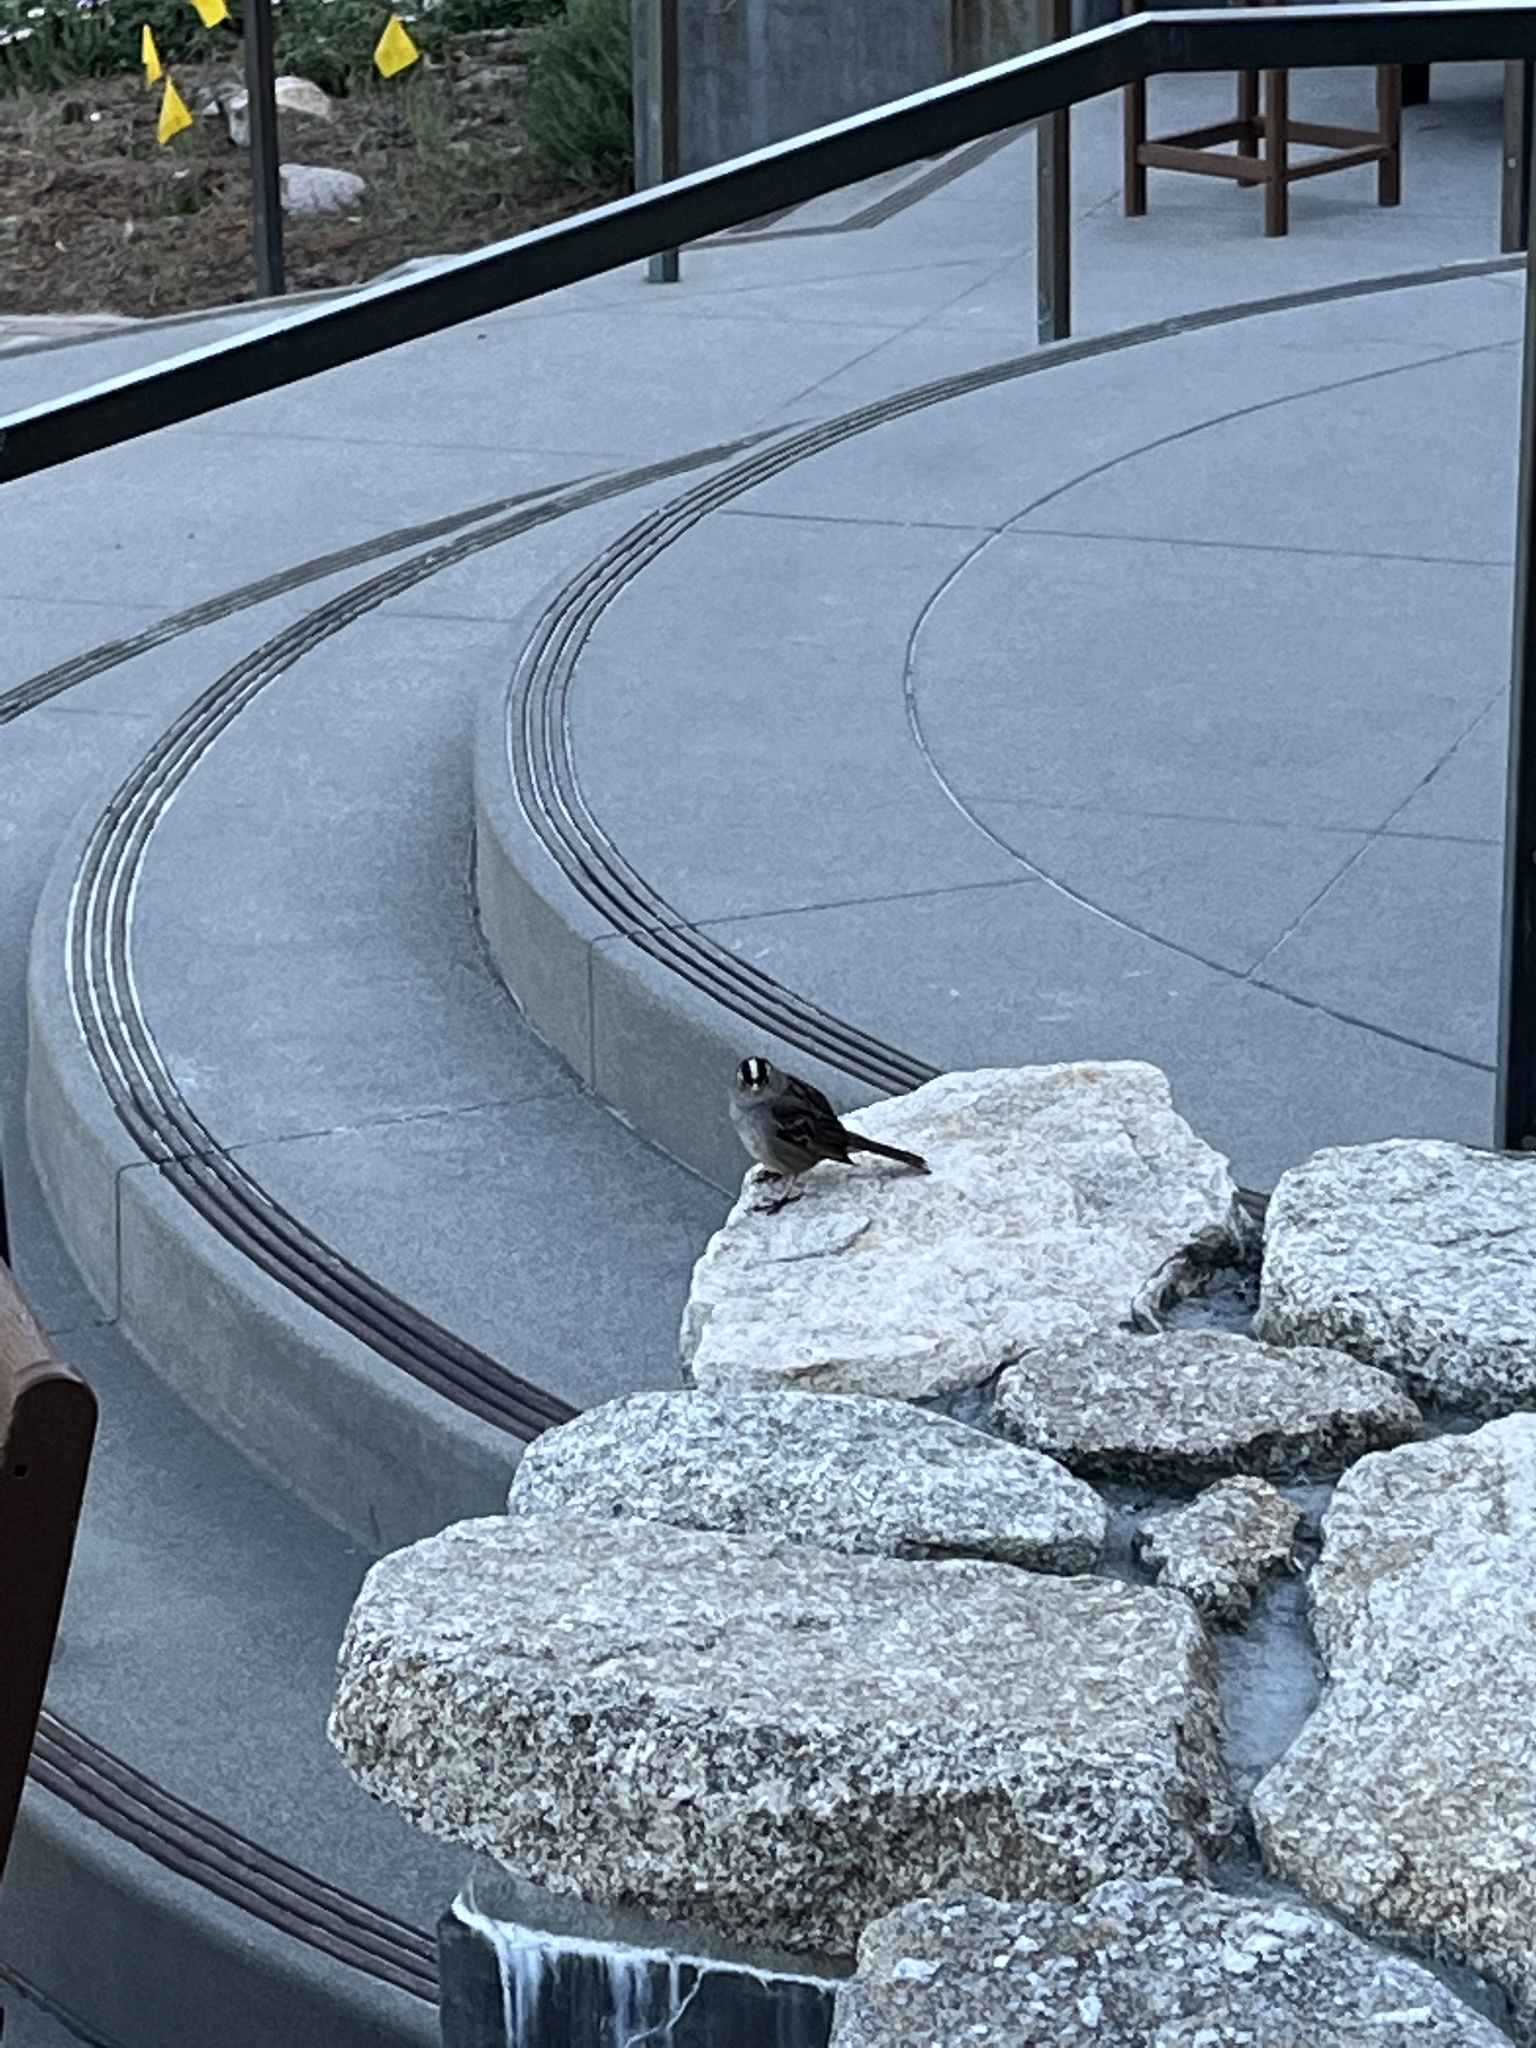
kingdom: Animalia
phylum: Chordata
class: Aves
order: Passeriformes
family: Passerellidae
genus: Zonotrichia
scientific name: Zonotrichia leucophrys
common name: White-crowned sparrow
